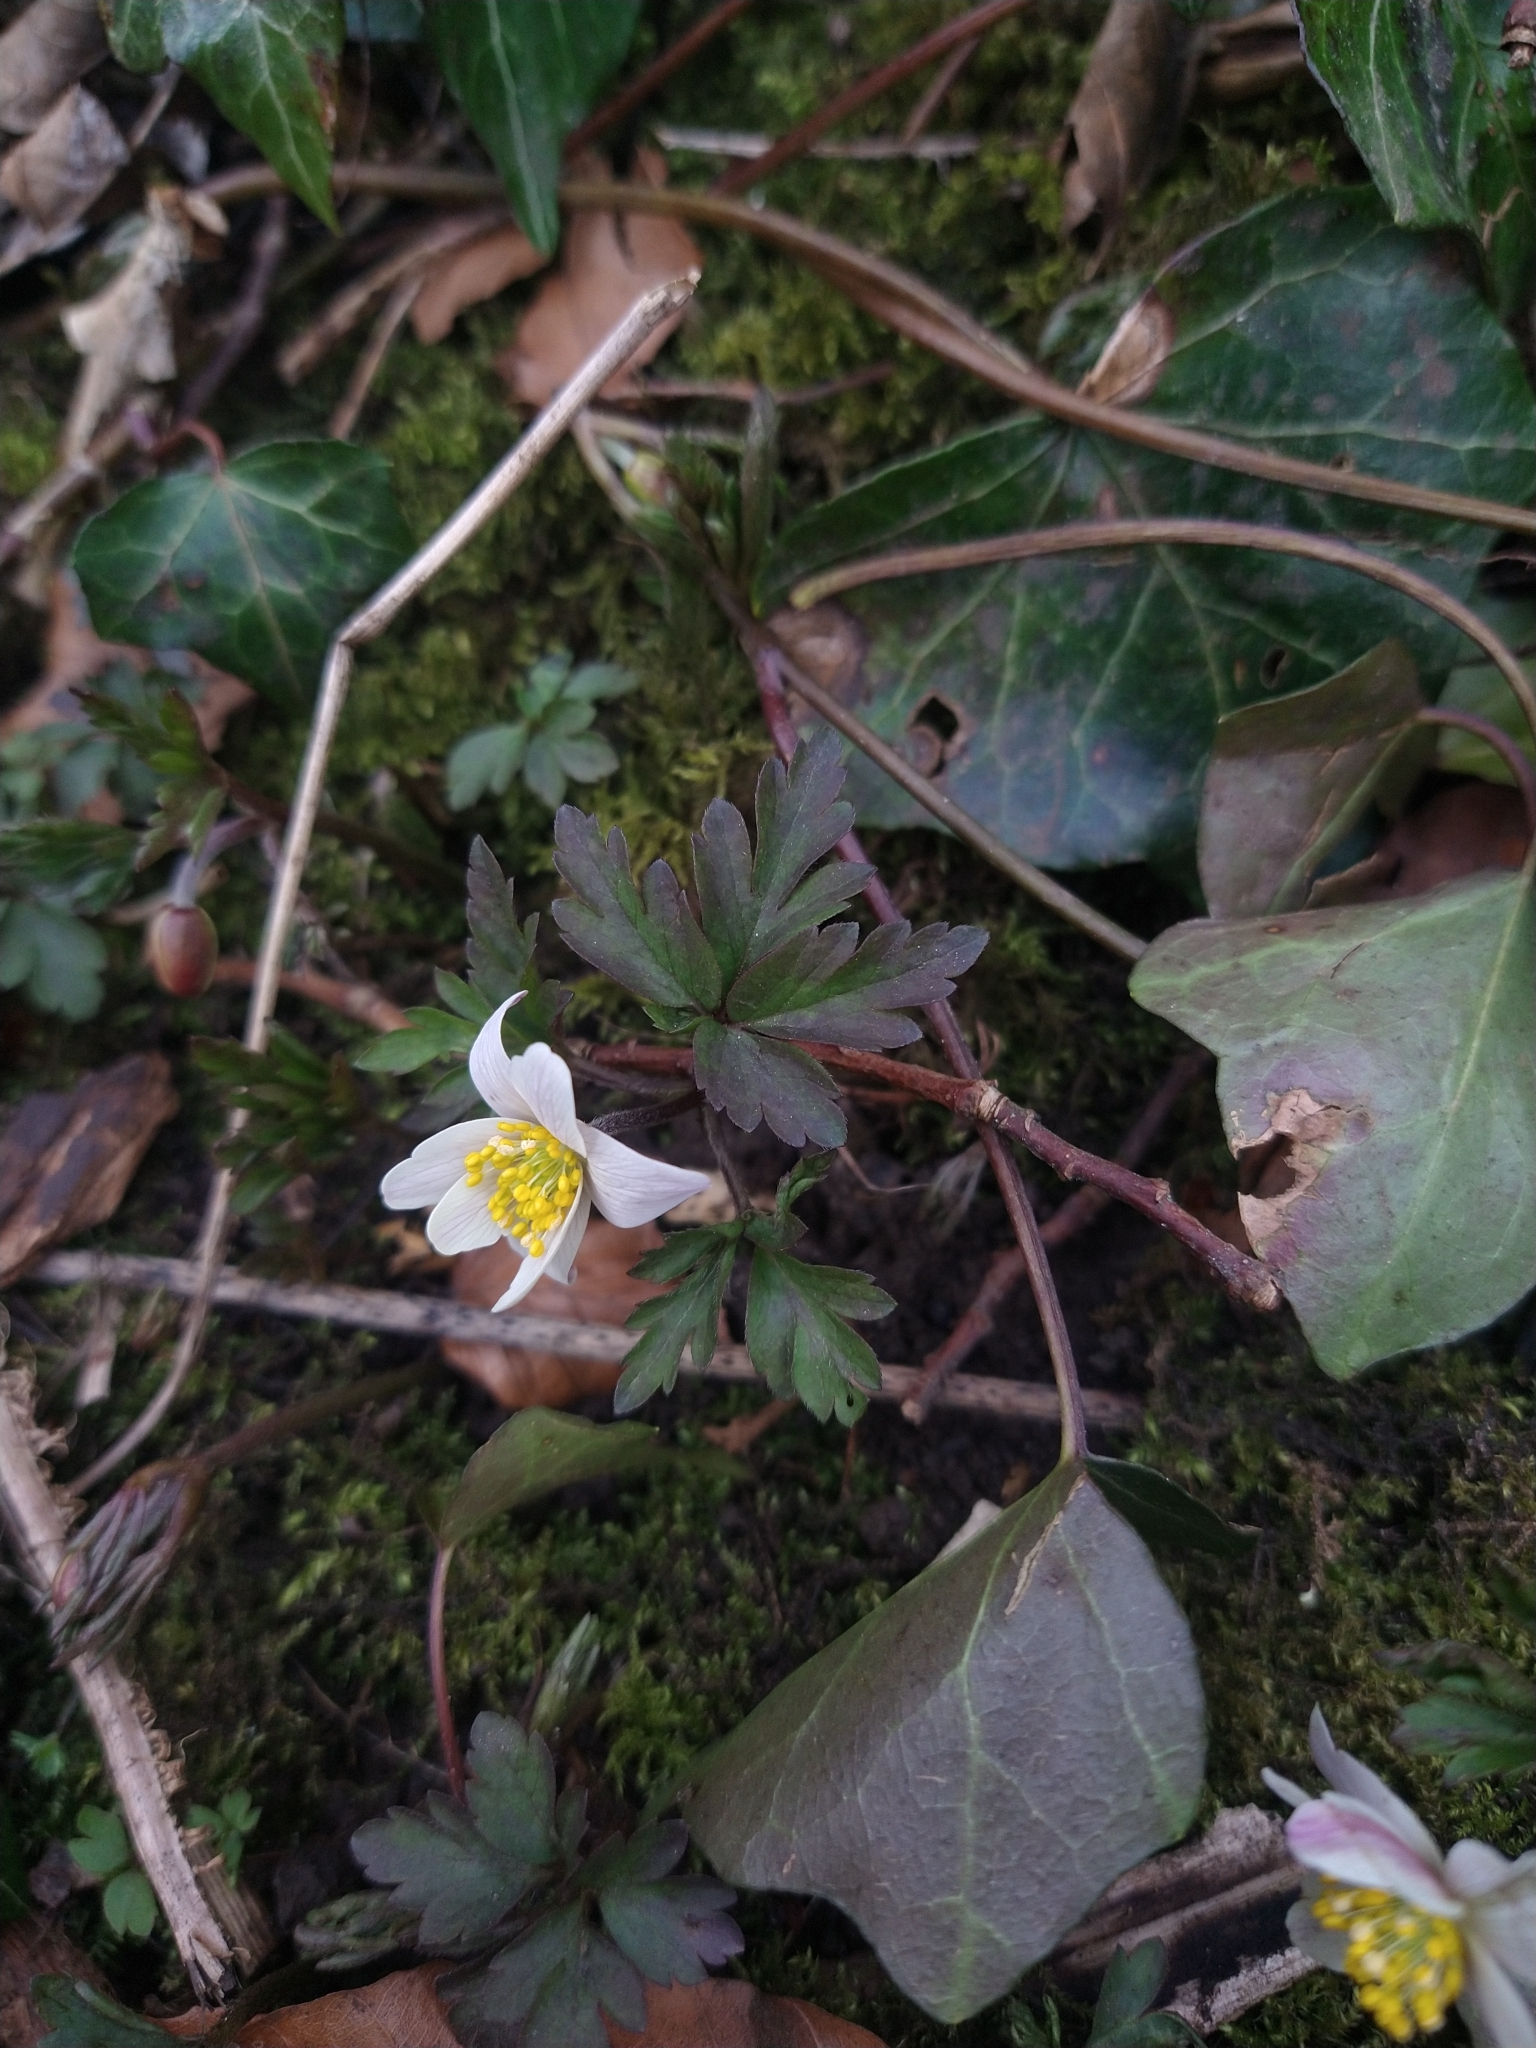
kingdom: Plantae
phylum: Tracheophyta
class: Magnoliopsida
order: Ranunculales
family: Ranunculaceae
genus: Anemone
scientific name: Anemone nemorosa
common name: Wood anemone
